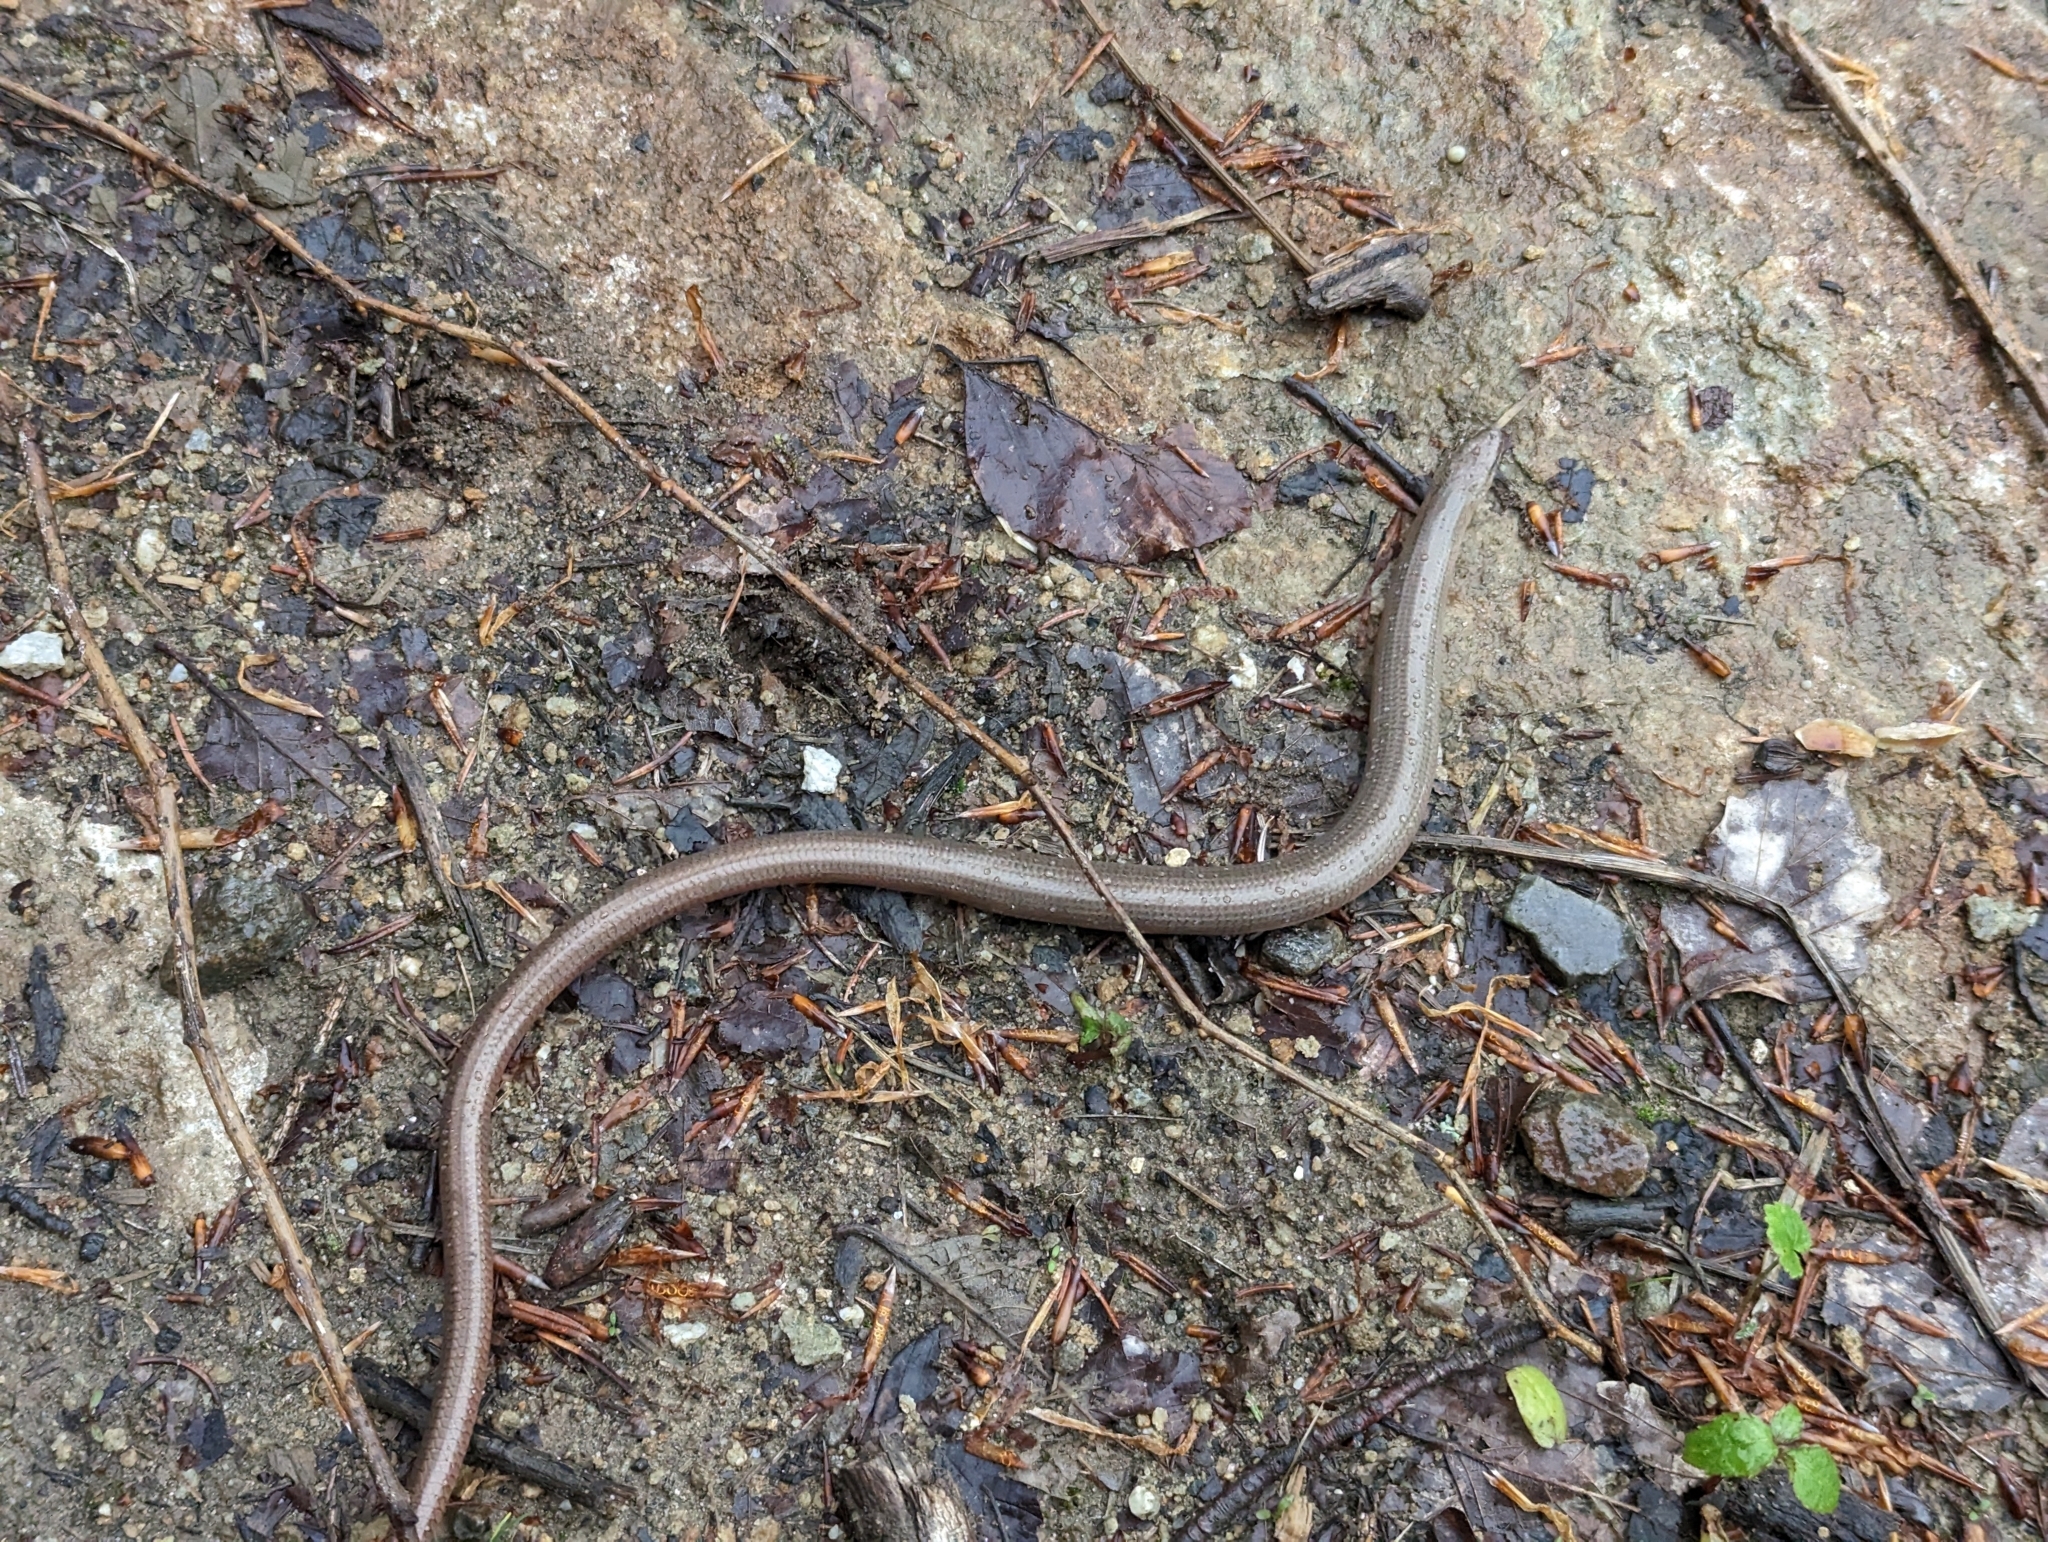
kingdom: Animalia
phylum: Chordata
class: Squamata
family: Anguidae
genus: Anguis
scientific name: Anguis fragilis
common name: Slow worm
